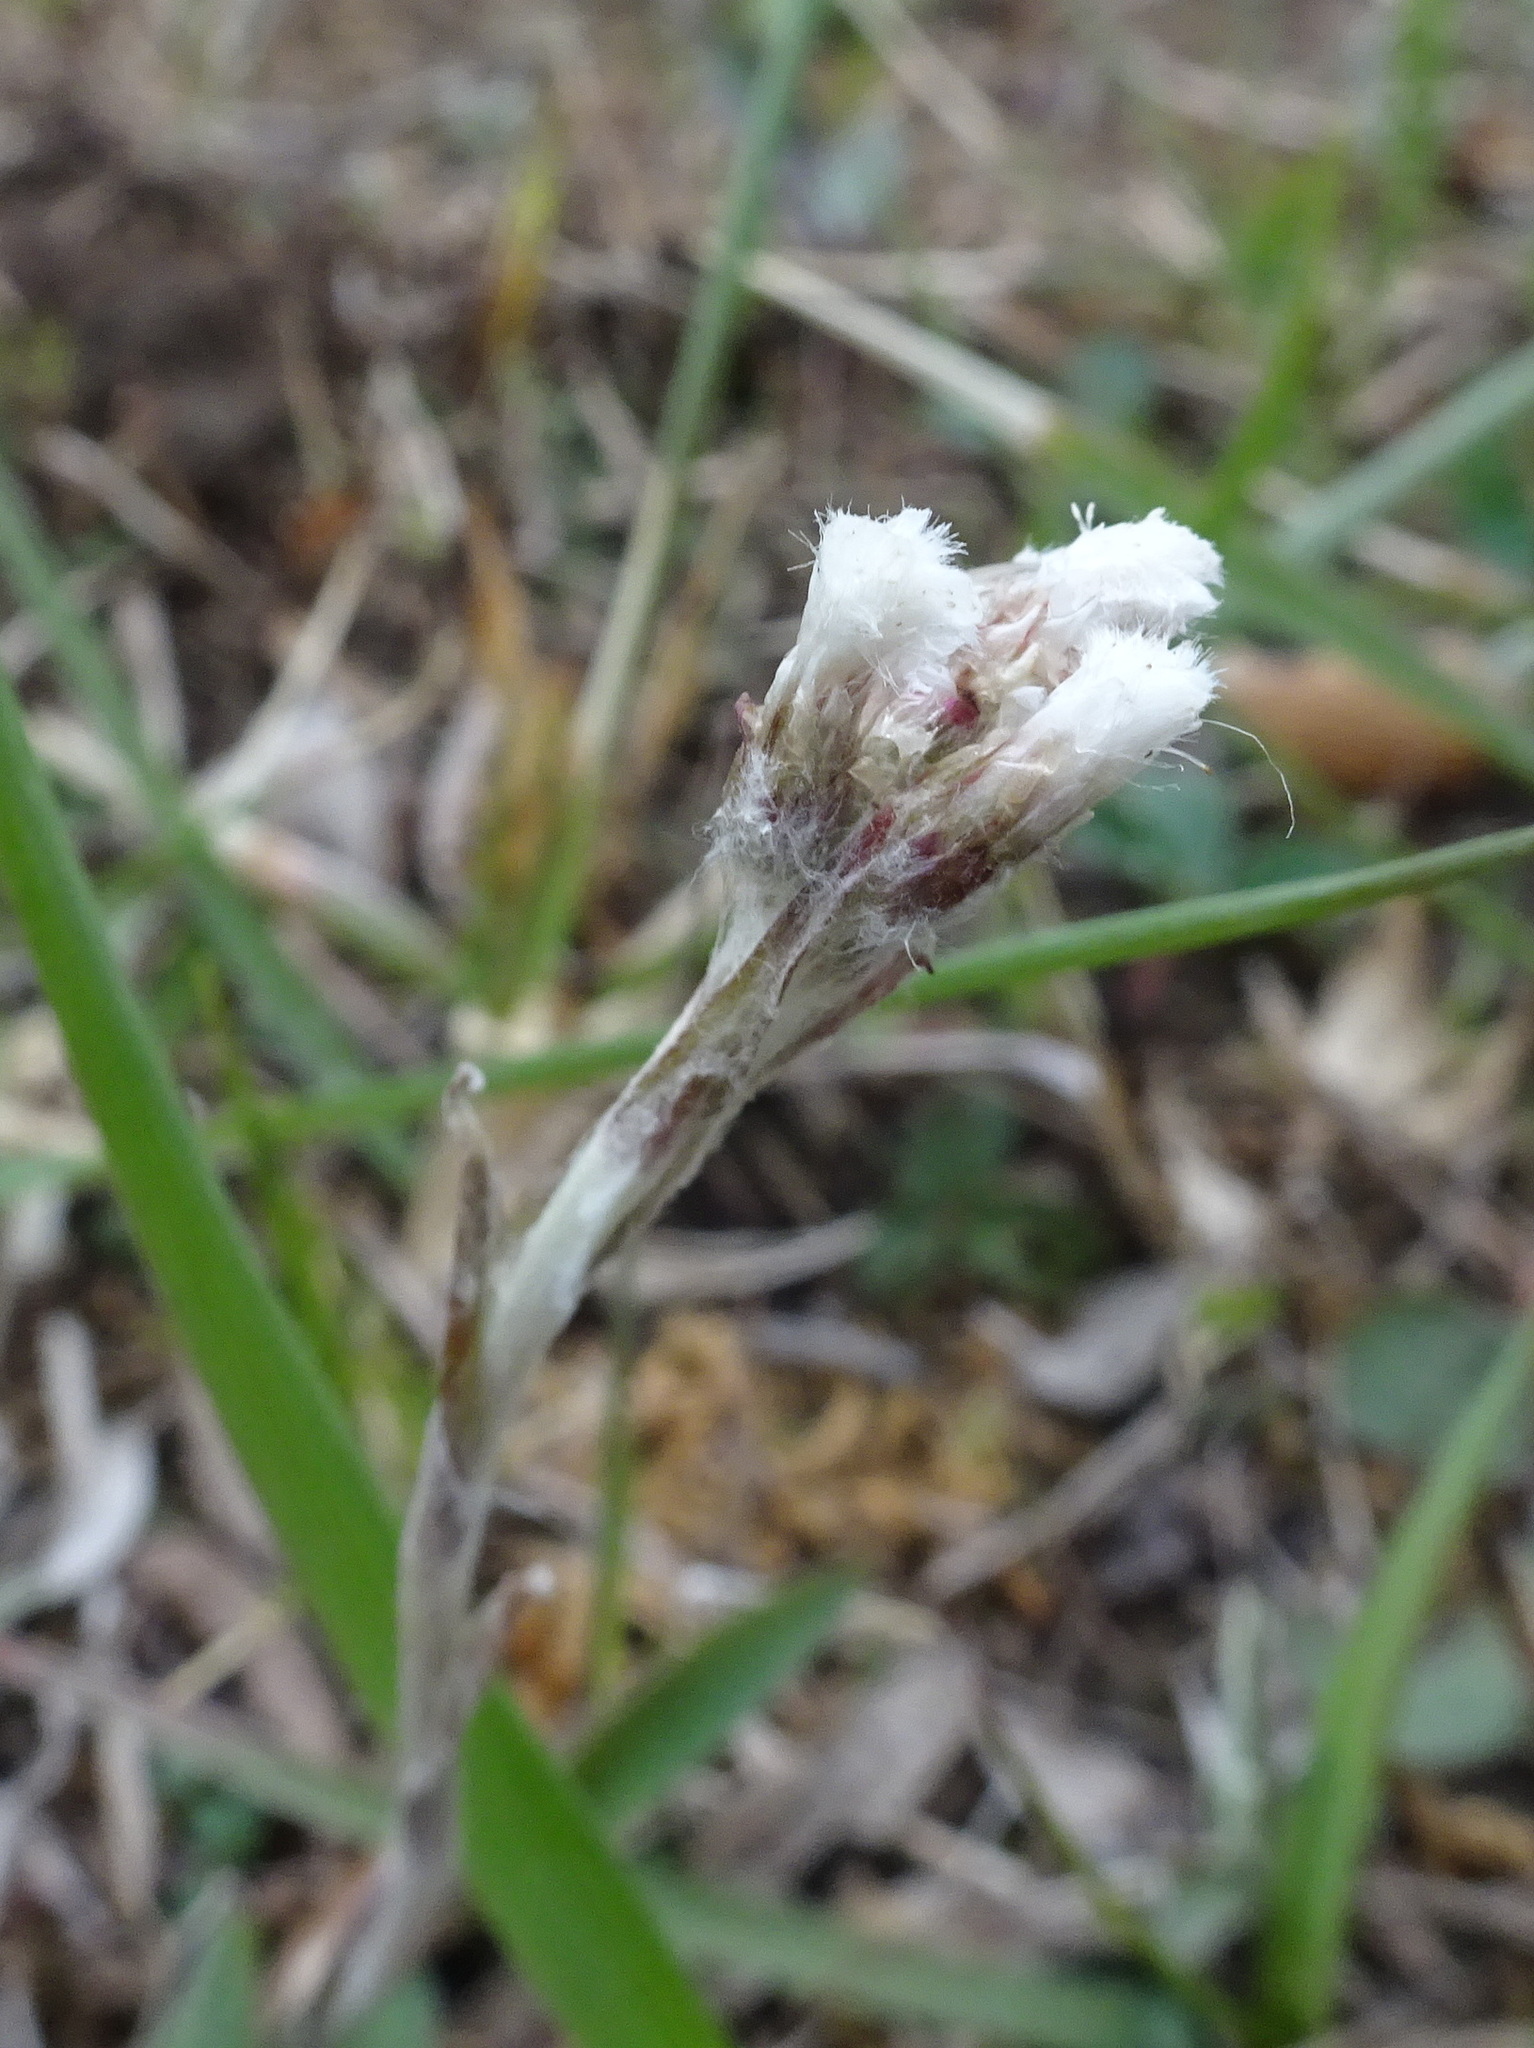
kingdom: Plantae
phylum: Tracheophyta
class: Magnoliopsida
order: Asterales
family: Asteraceae
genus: Antennaria
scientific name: Antennaria neglecta
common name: Field pussytoes
